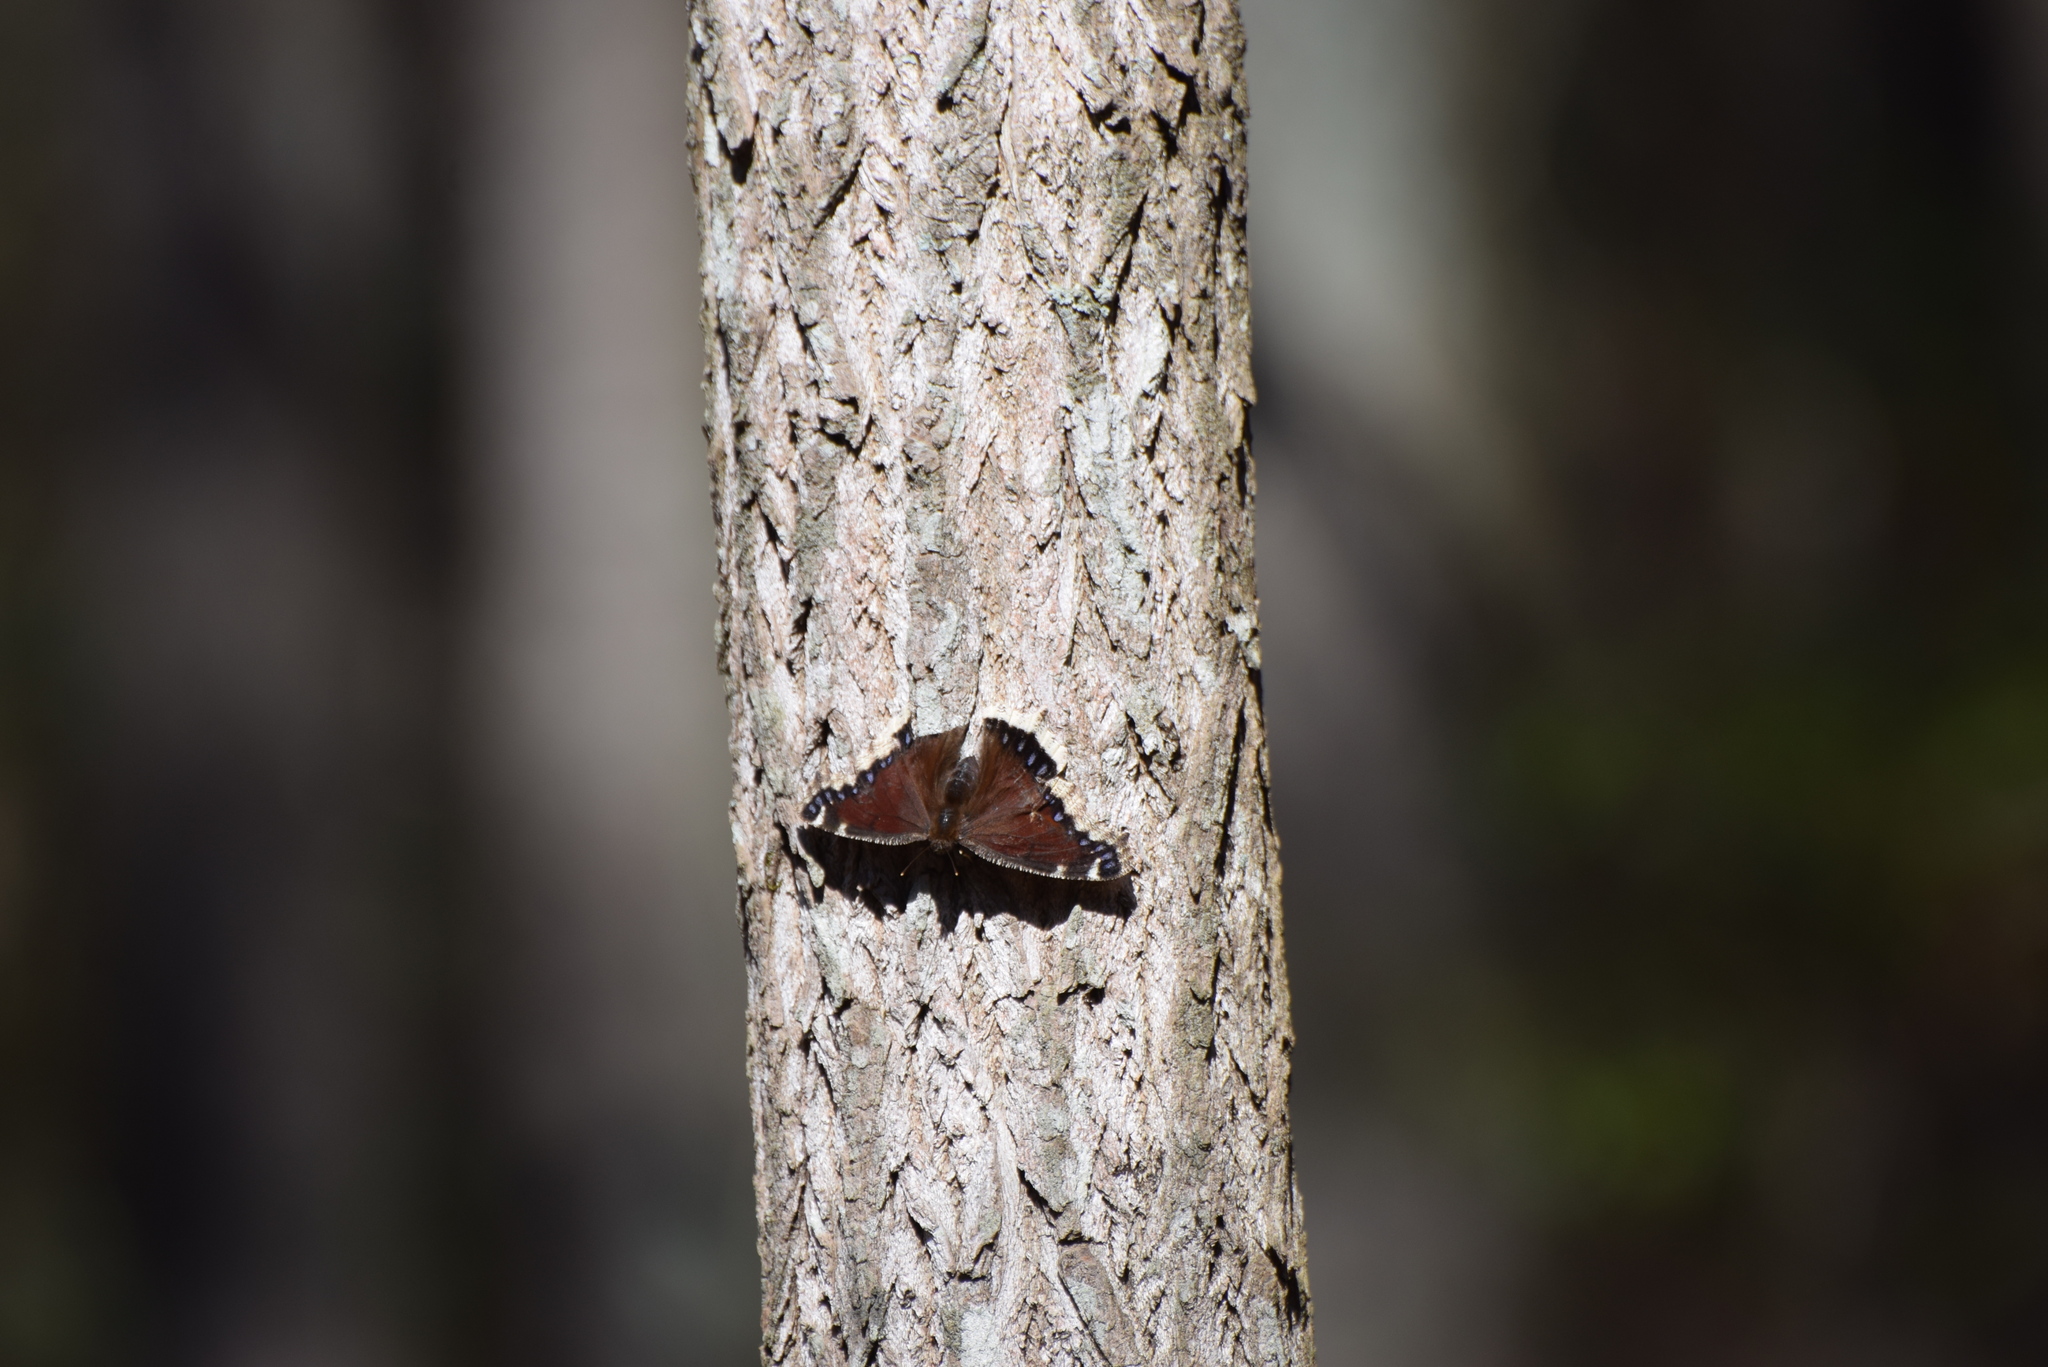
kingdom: Animalia
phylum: Arthropoda
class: Insecta
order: Lepidoptera
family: Nymphalidae
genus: Nymphalis
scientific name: Nymphalis antiopa
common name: Camberwell beauty
